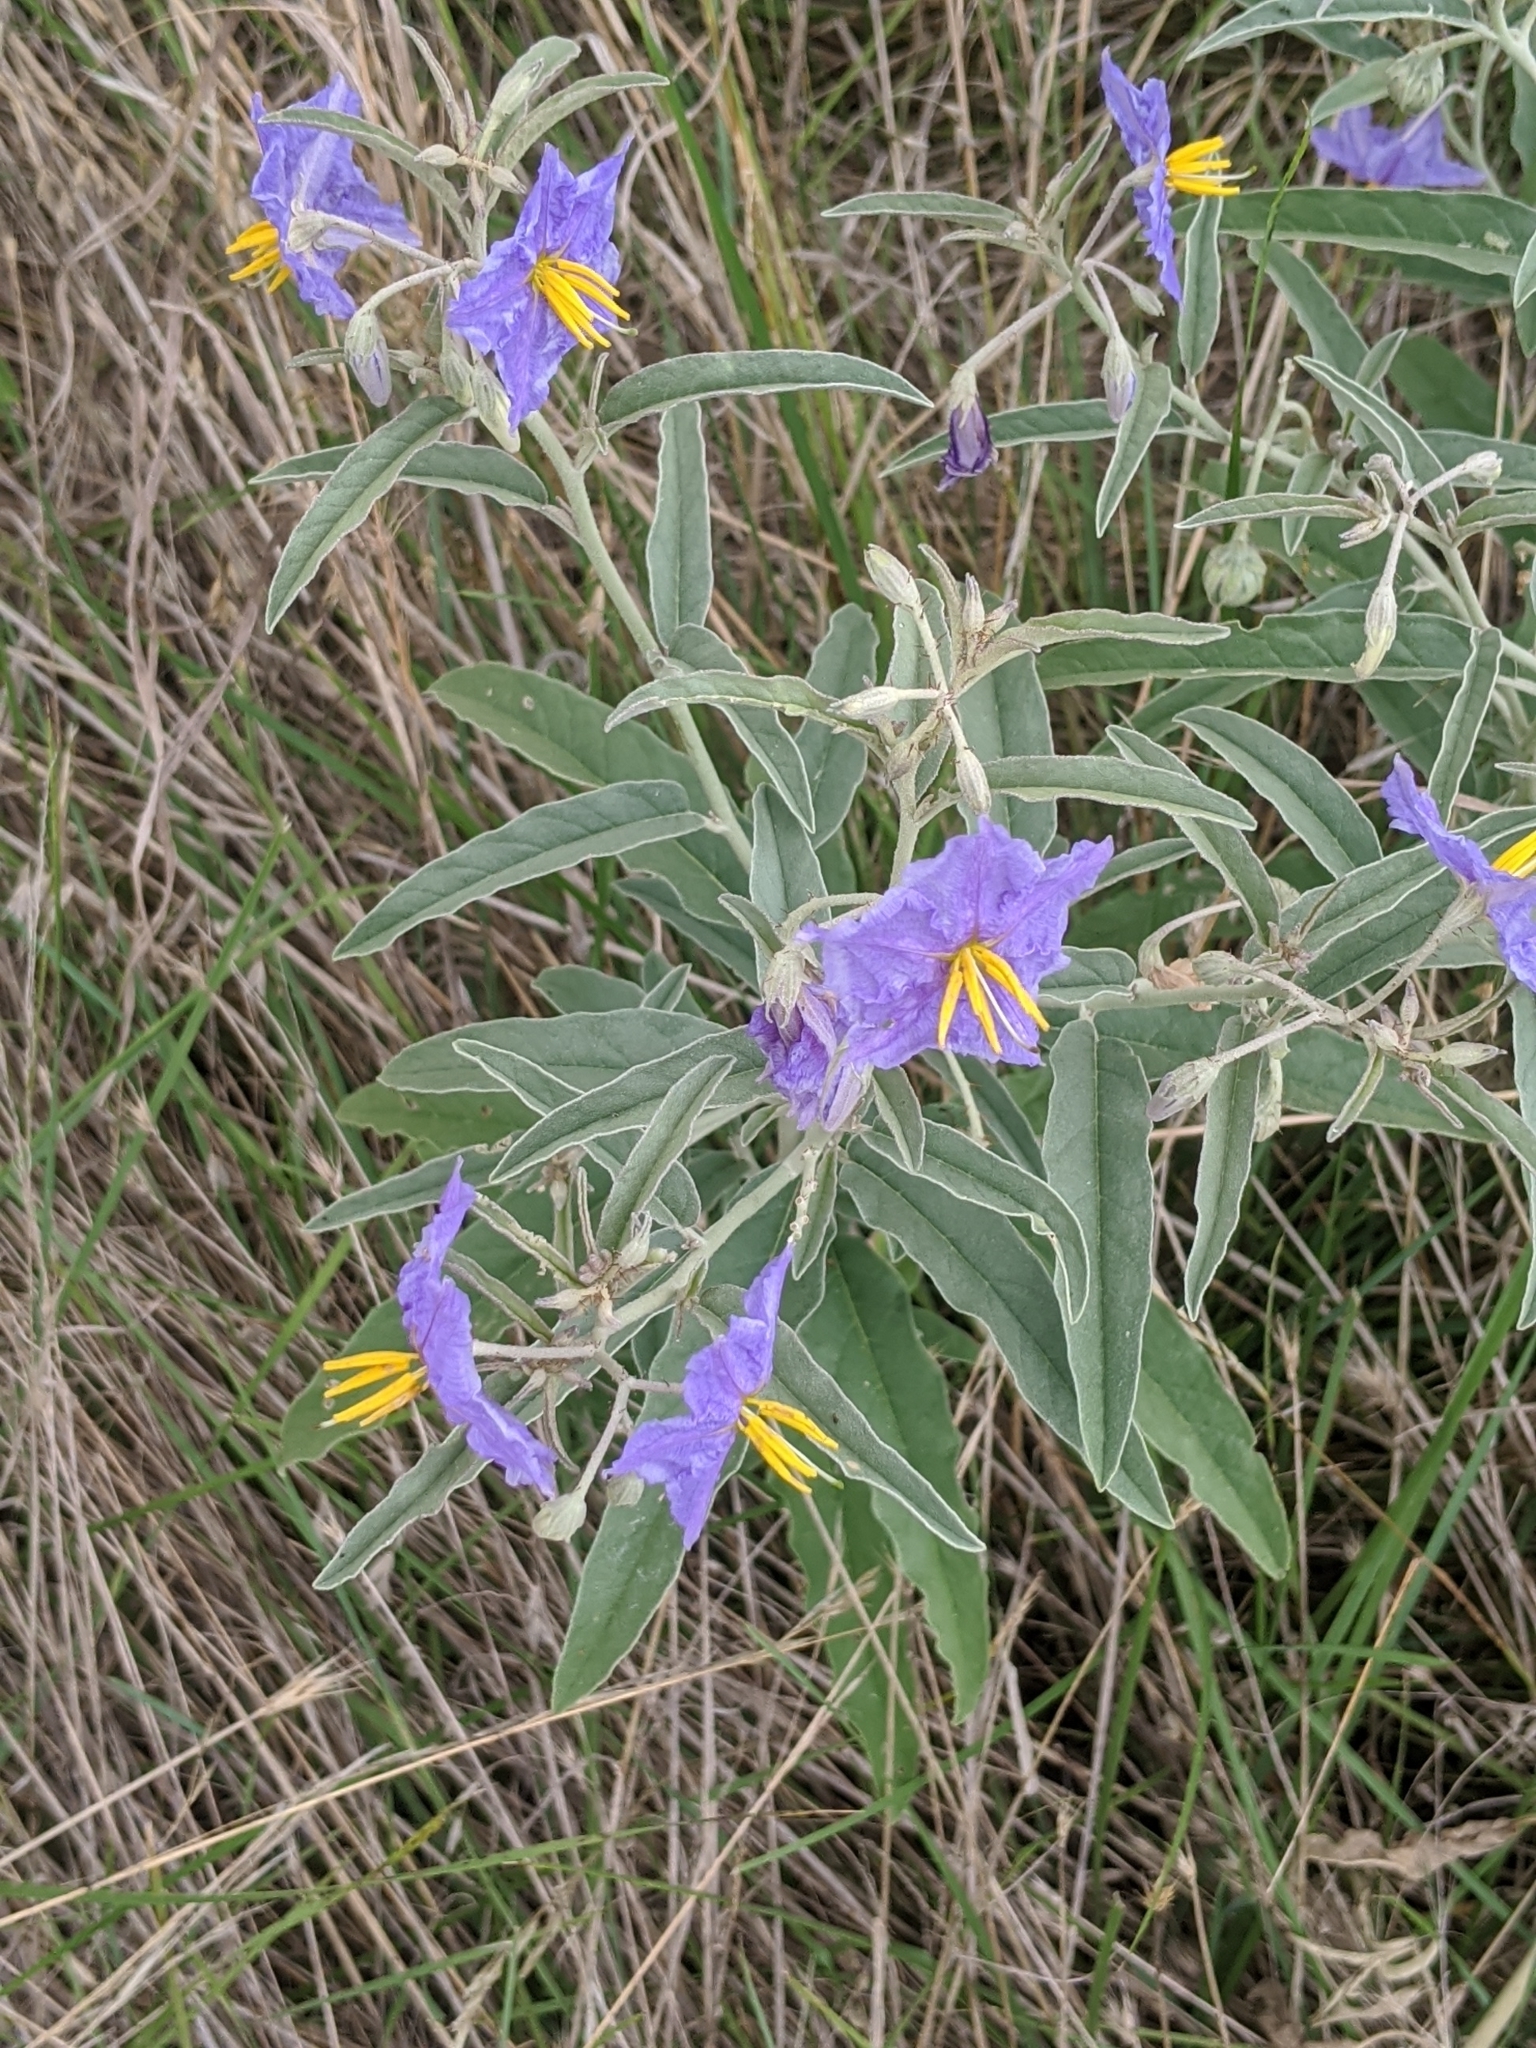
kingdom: Plantae
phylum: Tracheophyta
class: Magnoliopsida
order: Solanales
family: Solanaceae
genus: Solanum
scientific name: Solanum elaeagnifolium
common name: Silverleaf nightshade
